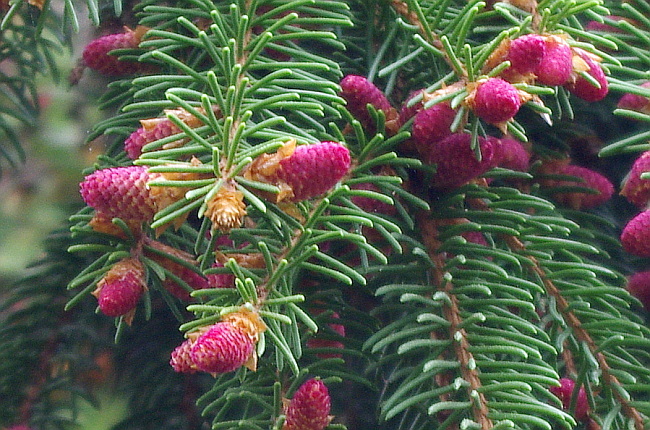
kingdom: Plantae
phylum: Tracheophyta
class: Pinopsida
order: Pinales
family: Pinaceae
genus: Picea
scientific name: Picea abies
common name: Norway spruce
